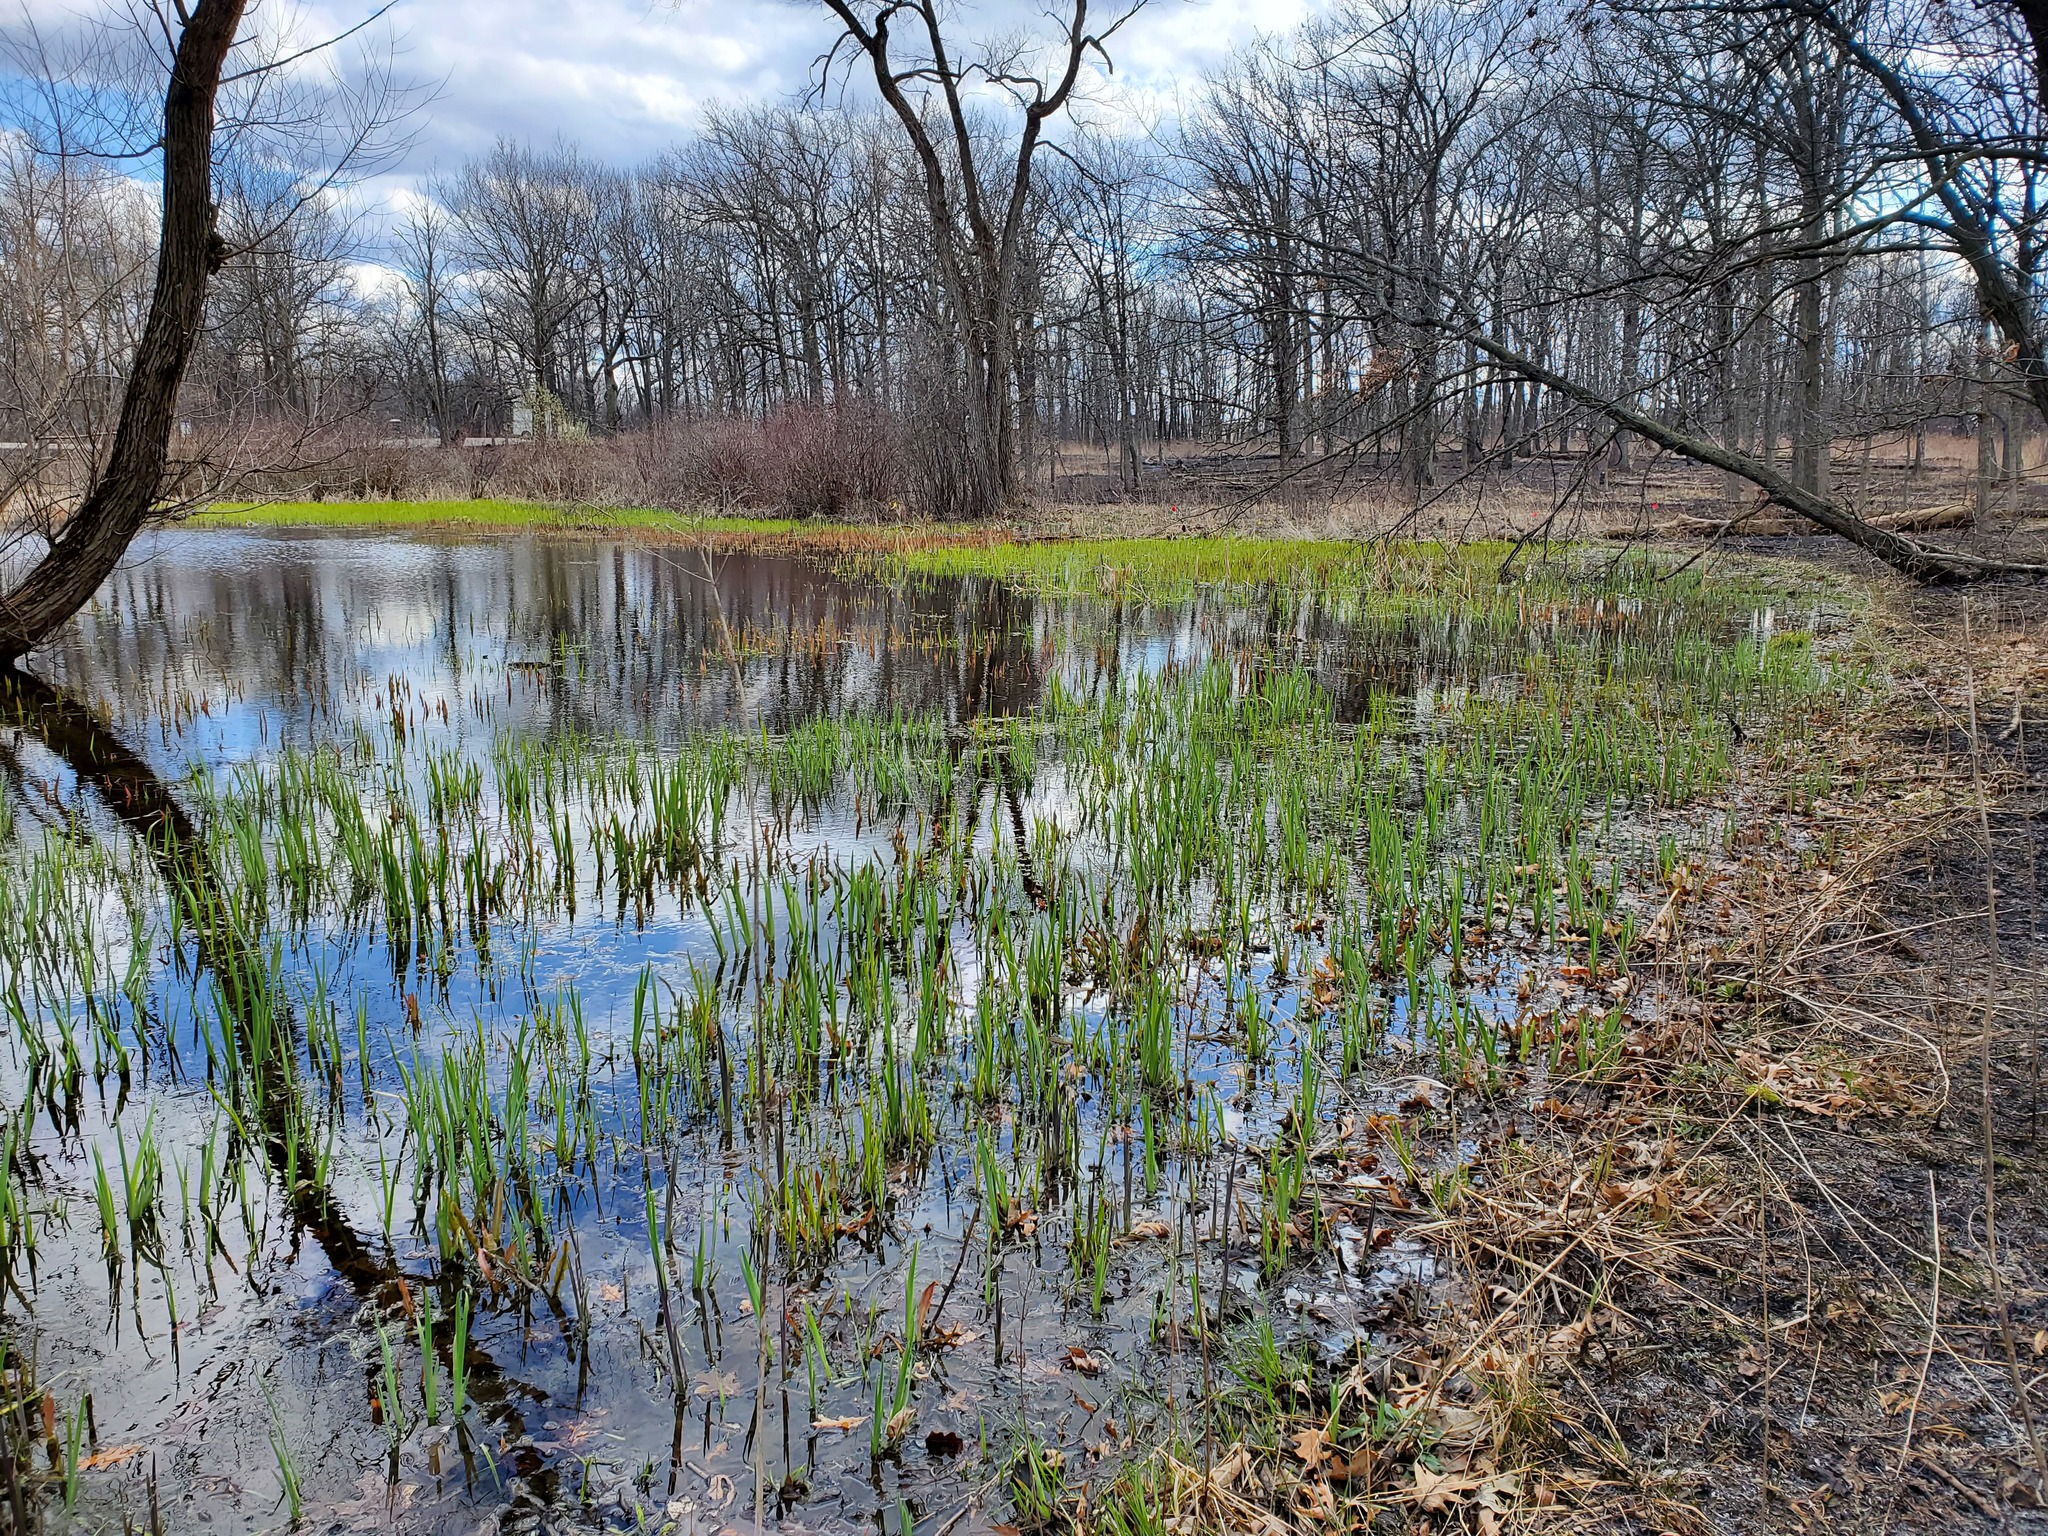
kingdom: Plantae
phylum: Tracheophyta
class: Liliopsida
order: Asparagales
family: Iridaceae
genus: Iris
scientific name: Iris virginica
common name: Southern blue flag
